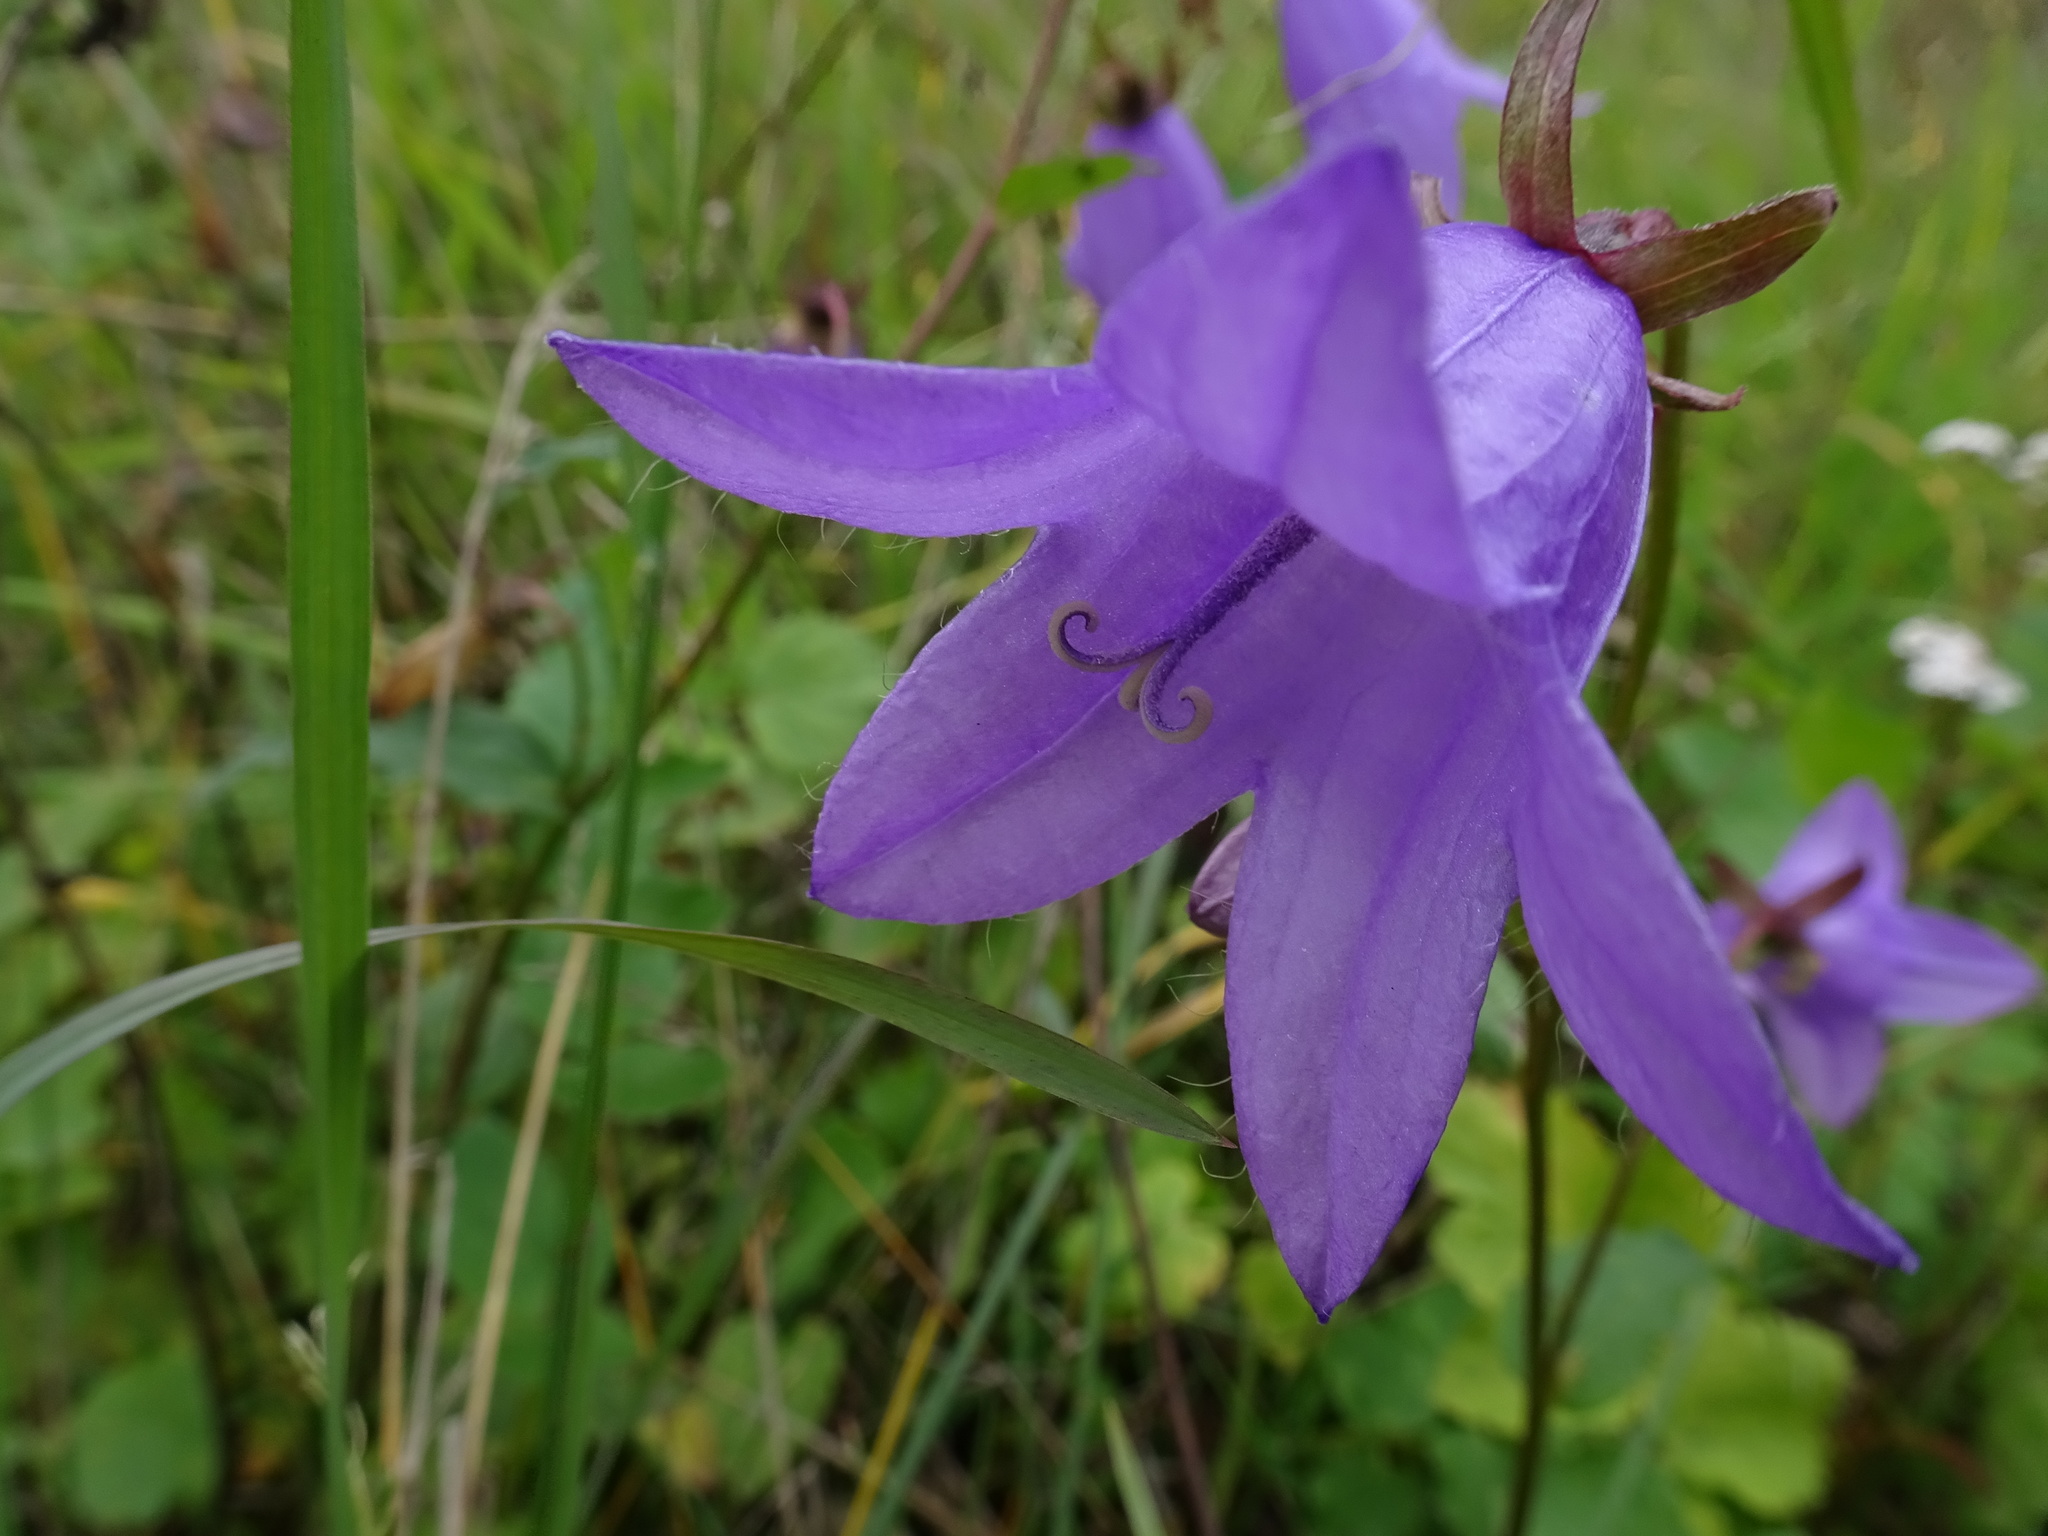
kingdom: Plantae
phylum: Tracheophyta
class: Magnoliopsida
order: Asterales
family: Campanulaceae
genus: Campanula
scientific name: Campanula patula
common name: Spreading bellflower
